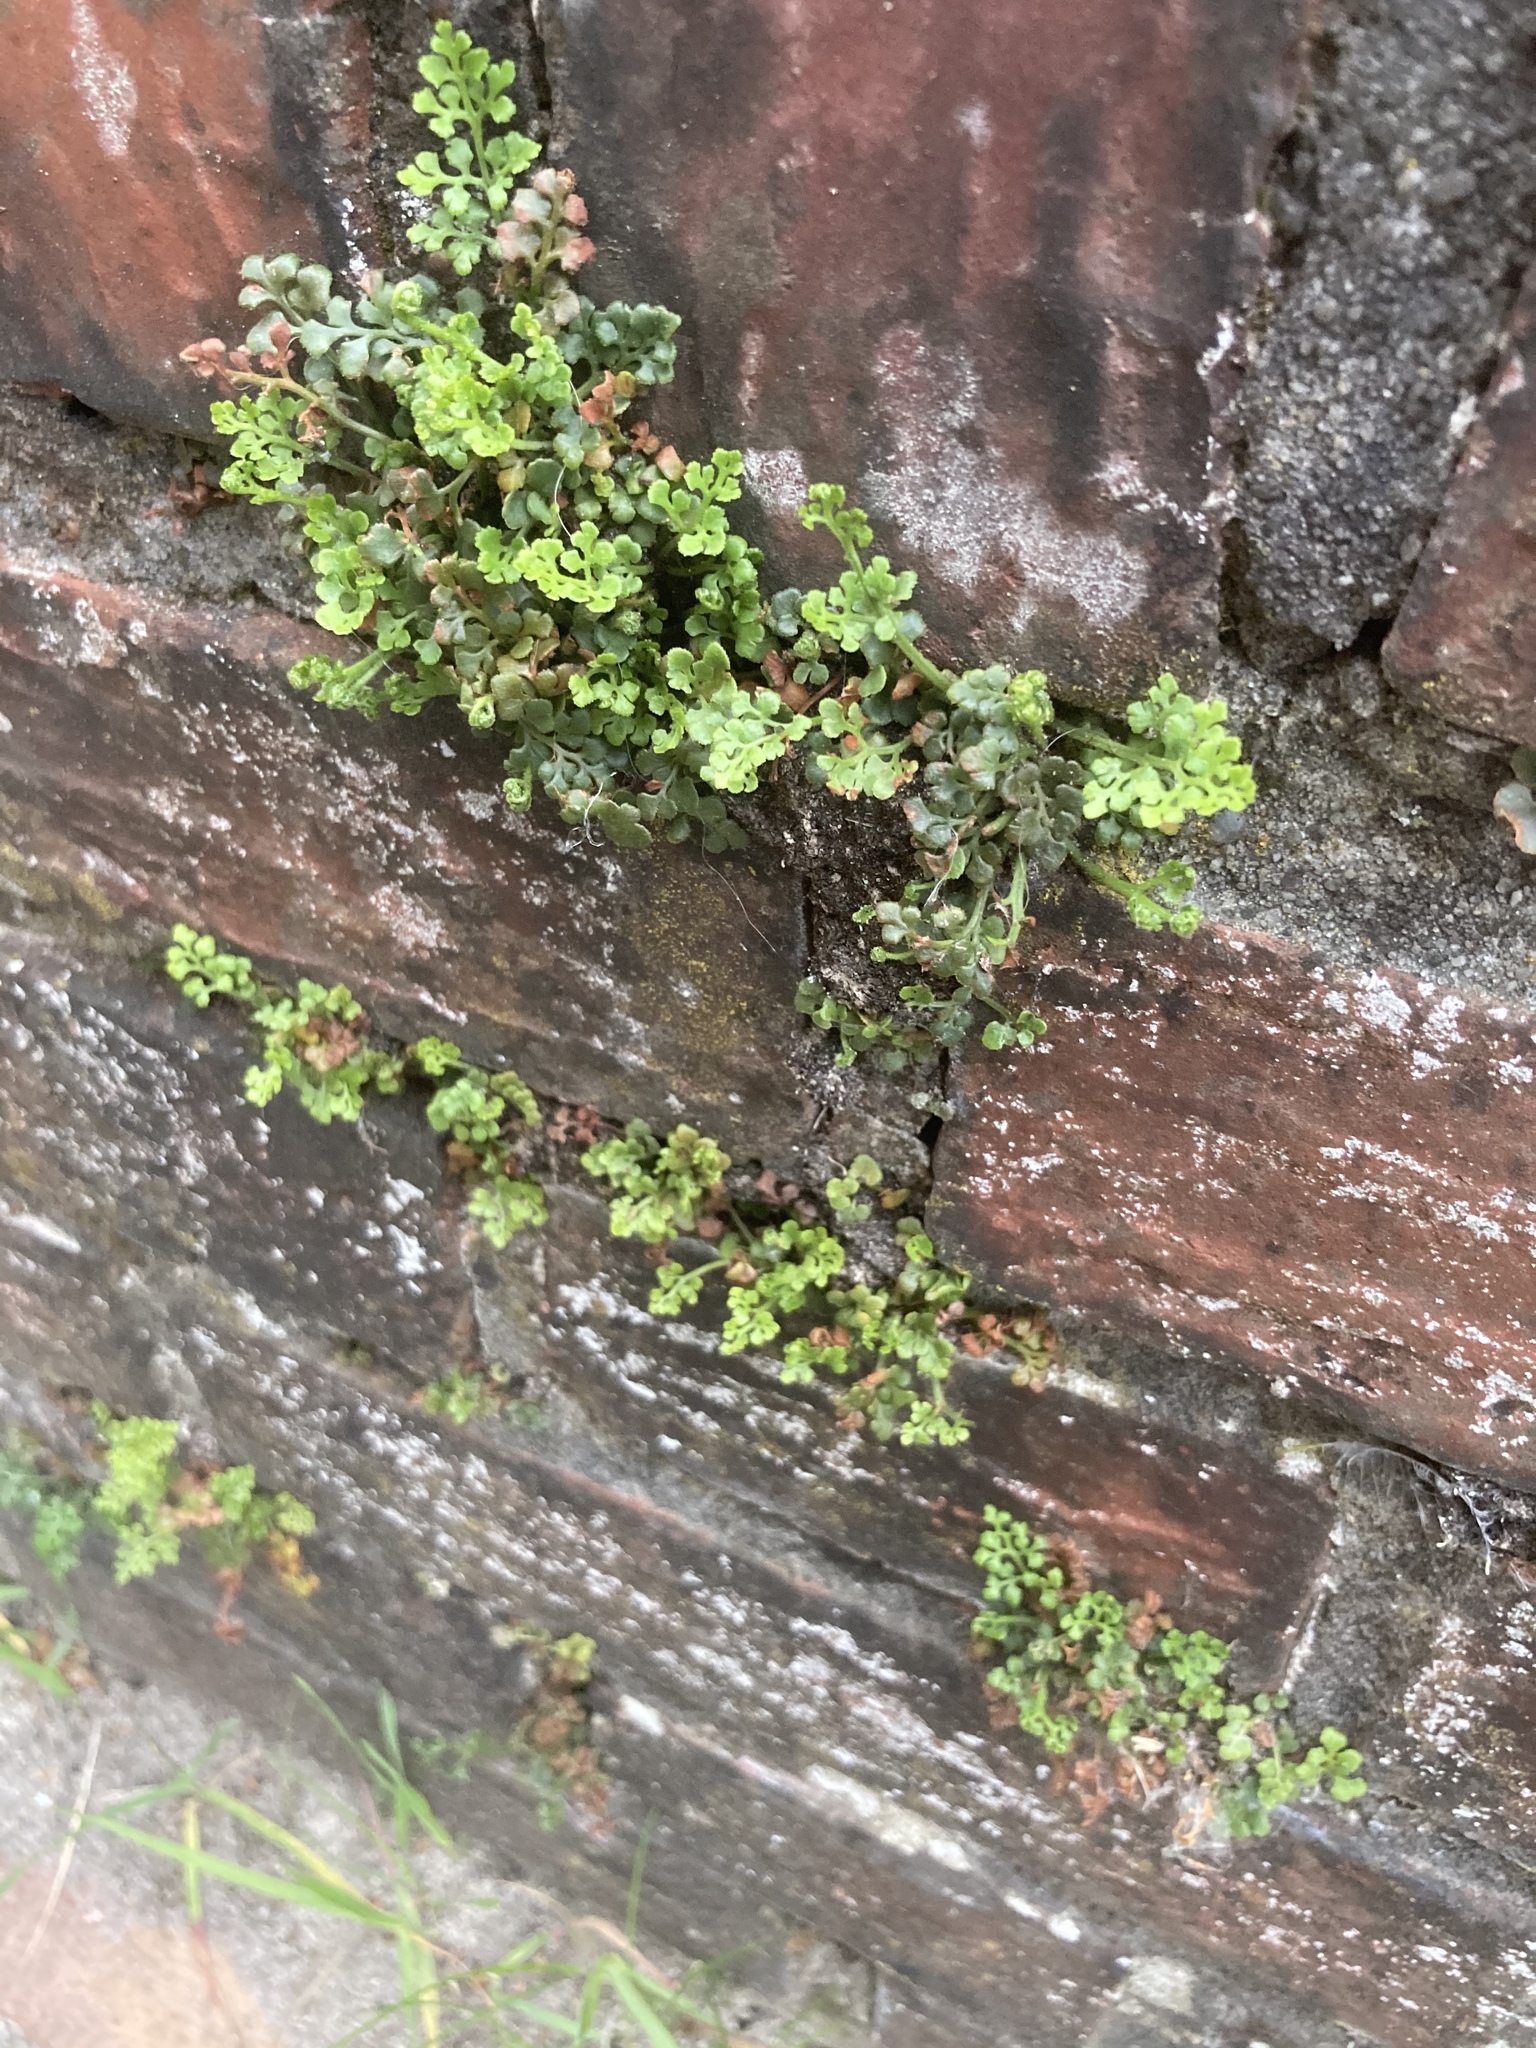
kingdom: Plantae
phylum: Tracheophyta
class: Polypodiopsida
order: Polypodiales
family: Aspleniaceae
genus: Asplenium
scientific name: Asplenium ruta-muraria
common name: Wall-rue
